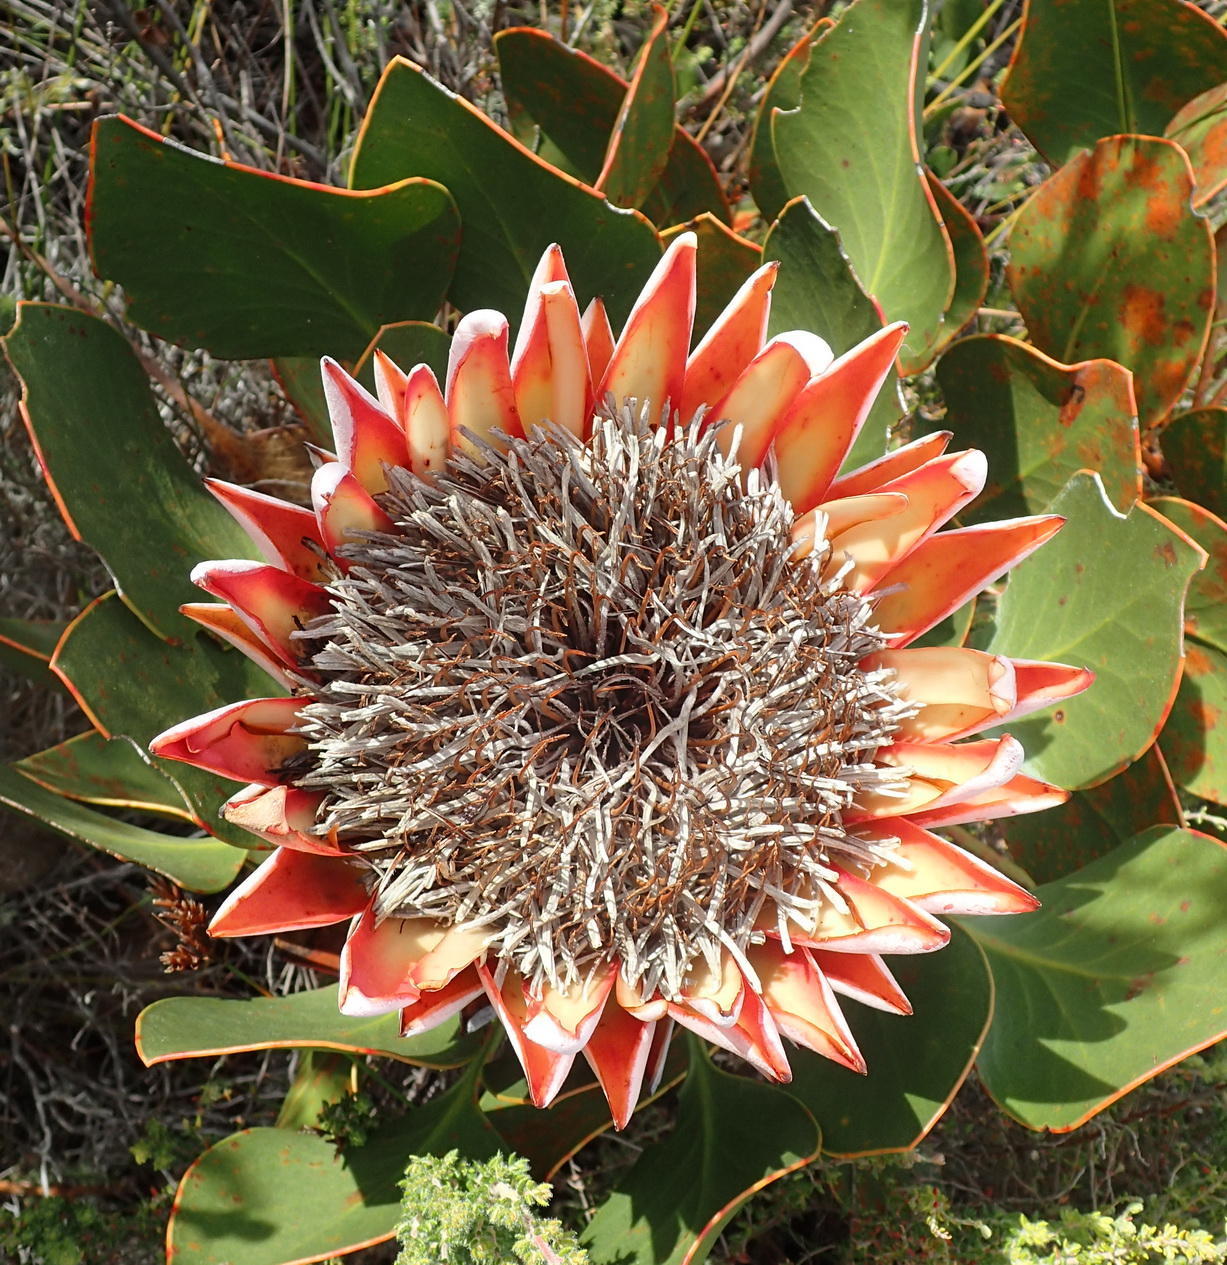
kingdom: Plantae
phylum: Tracheophyta
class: Magnoliopsida
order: Proteales
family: Proteaceae
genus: Protea
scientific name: Protea cynaroides
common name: King protea
